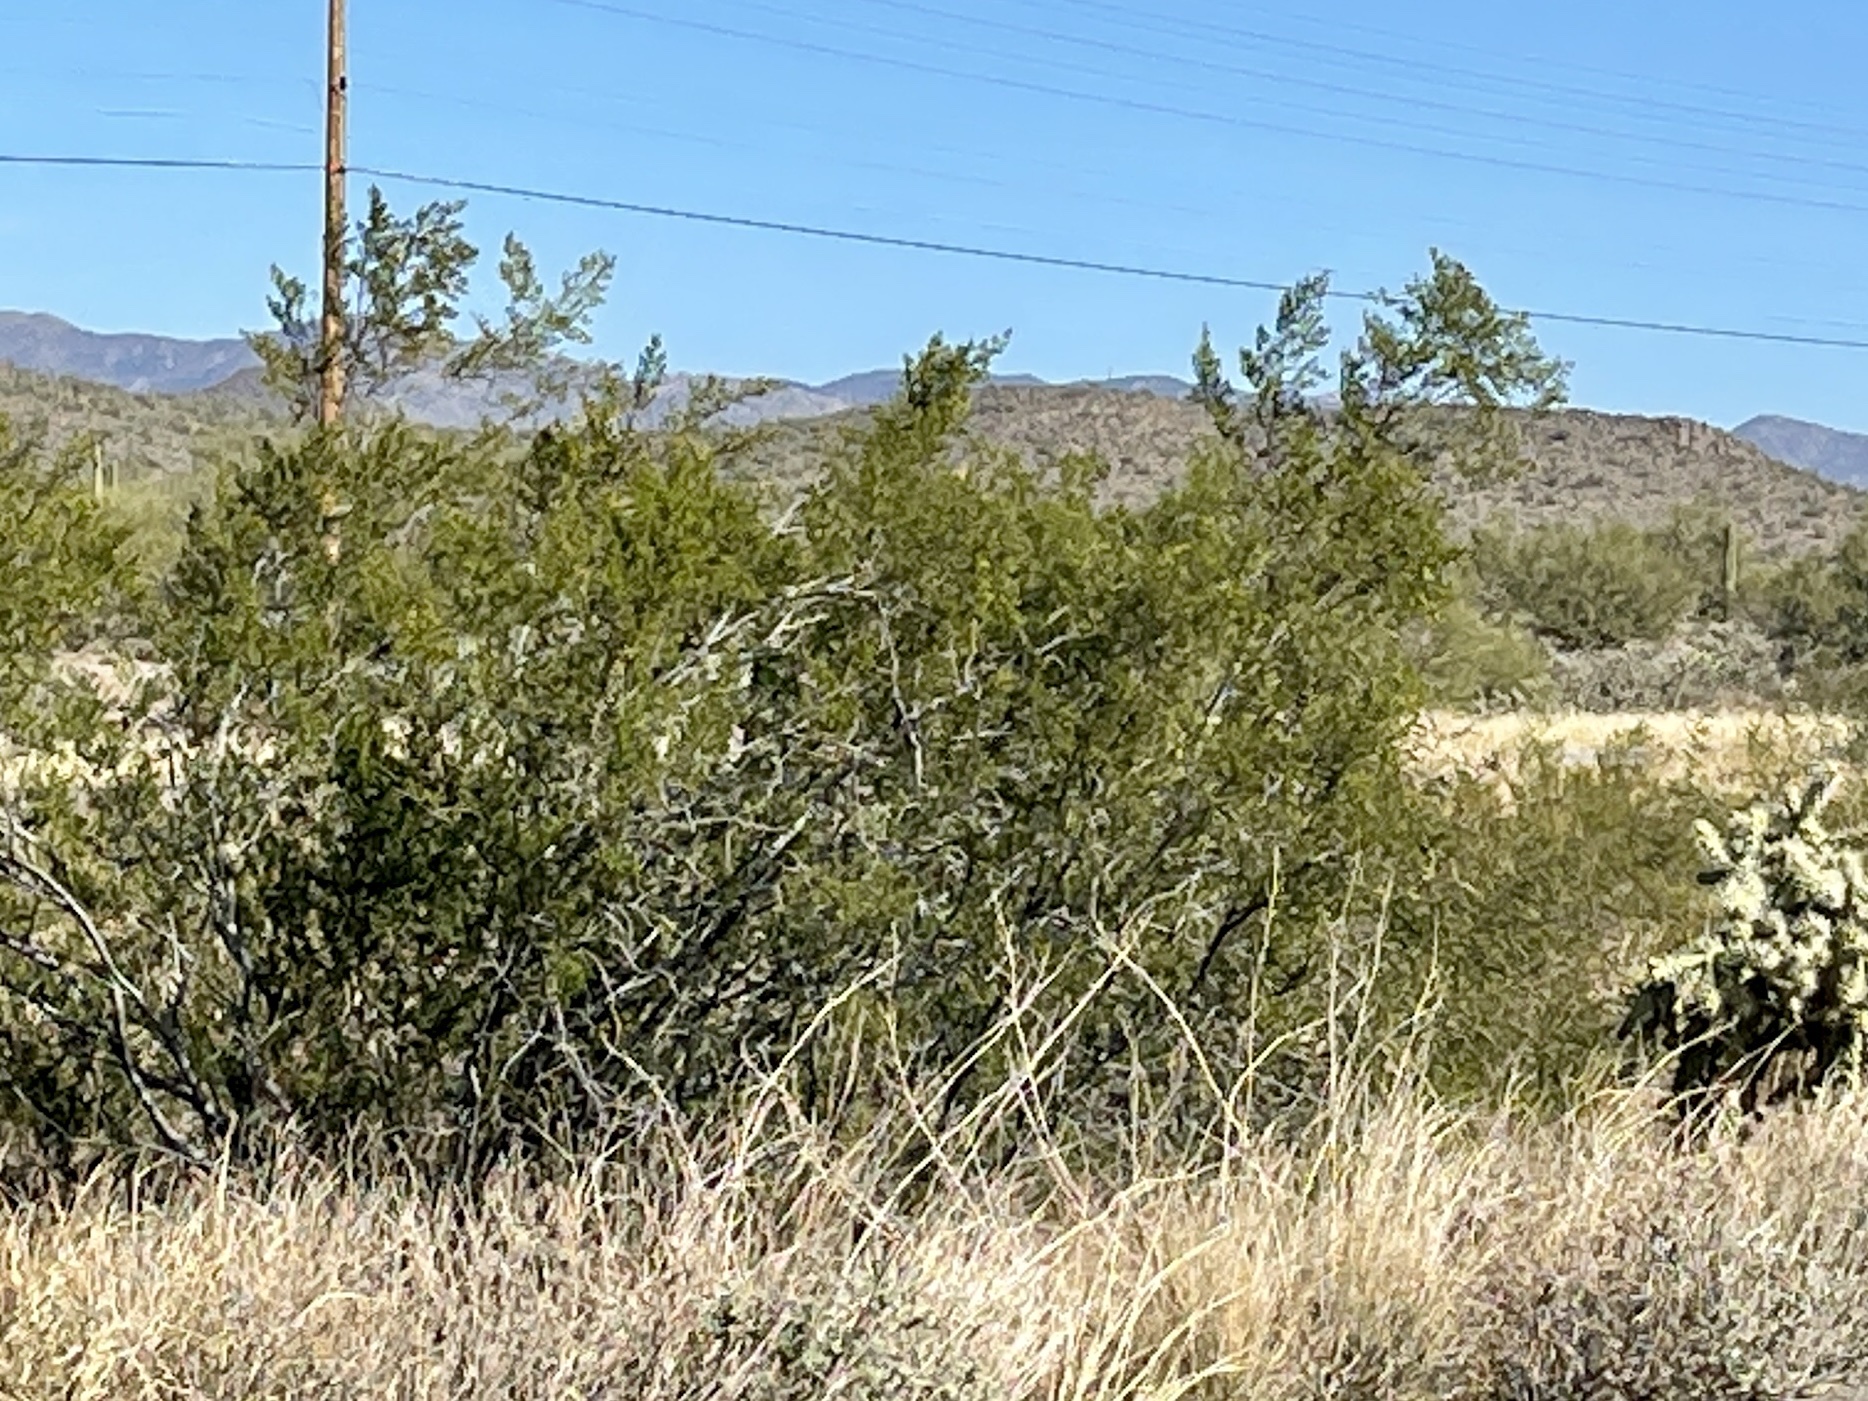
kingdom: Plantae
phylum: Tracheophyta
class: Magnoliopsida
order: Zygophyllales
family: Zygophyllaceae
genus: Larrea
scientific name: Larrea tridentata
